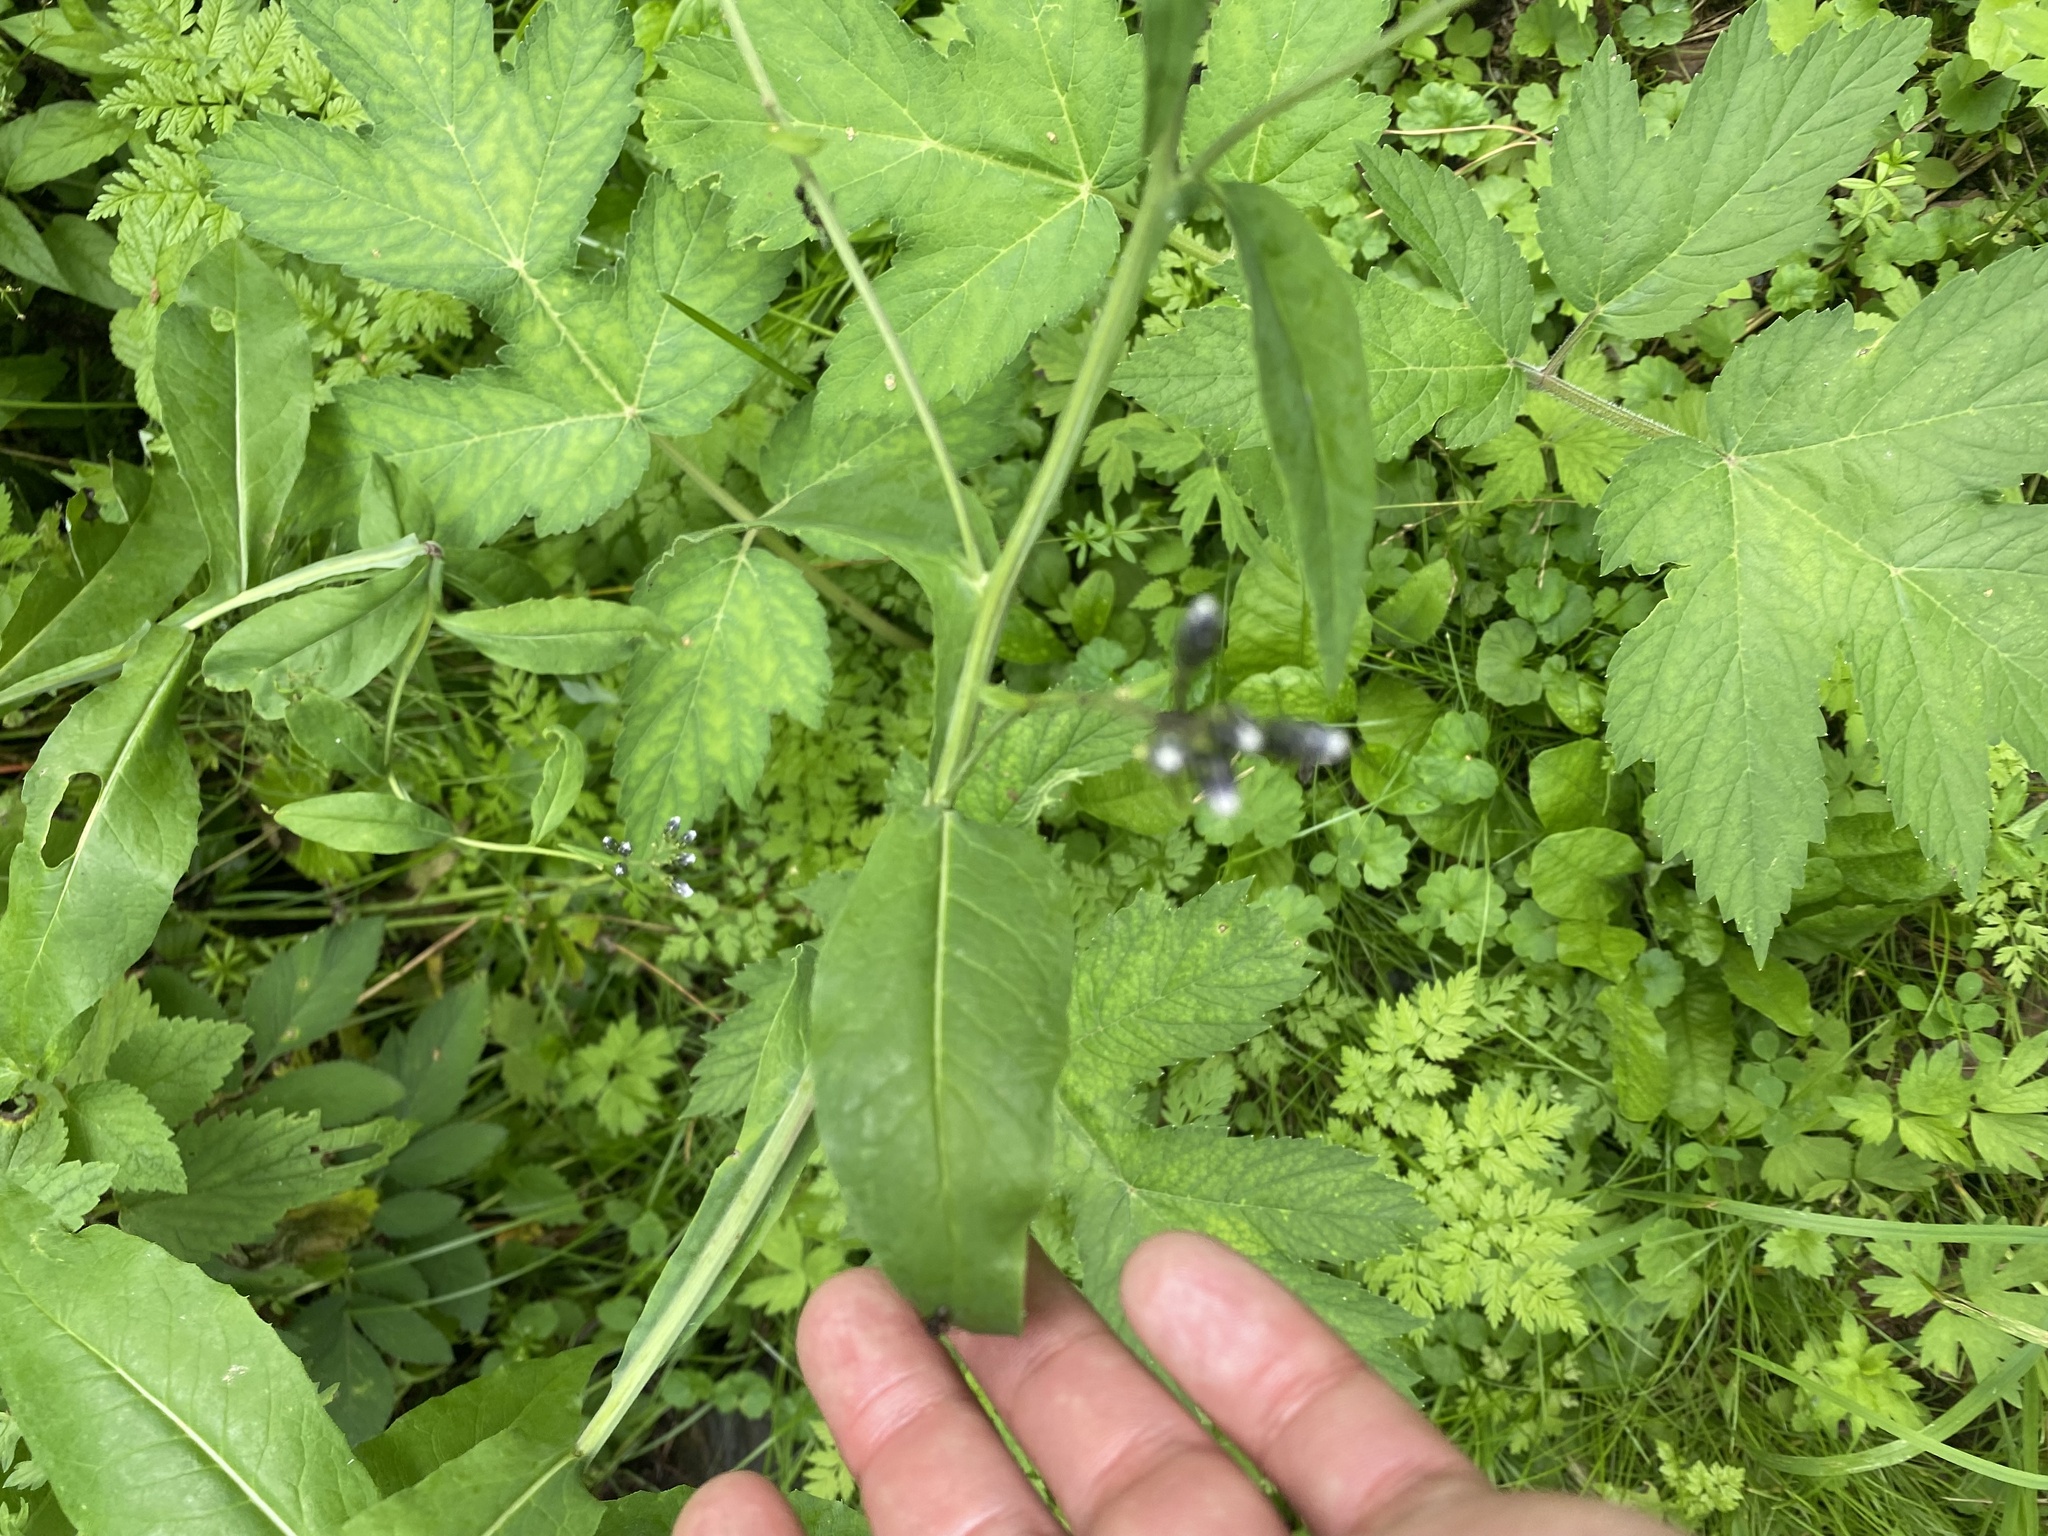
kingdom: Plantae
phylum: Tracheophyta
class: Magnoliopsida
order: Asterales
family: Asteraceae
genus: Saussurea
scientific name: Saussurea parviflora
